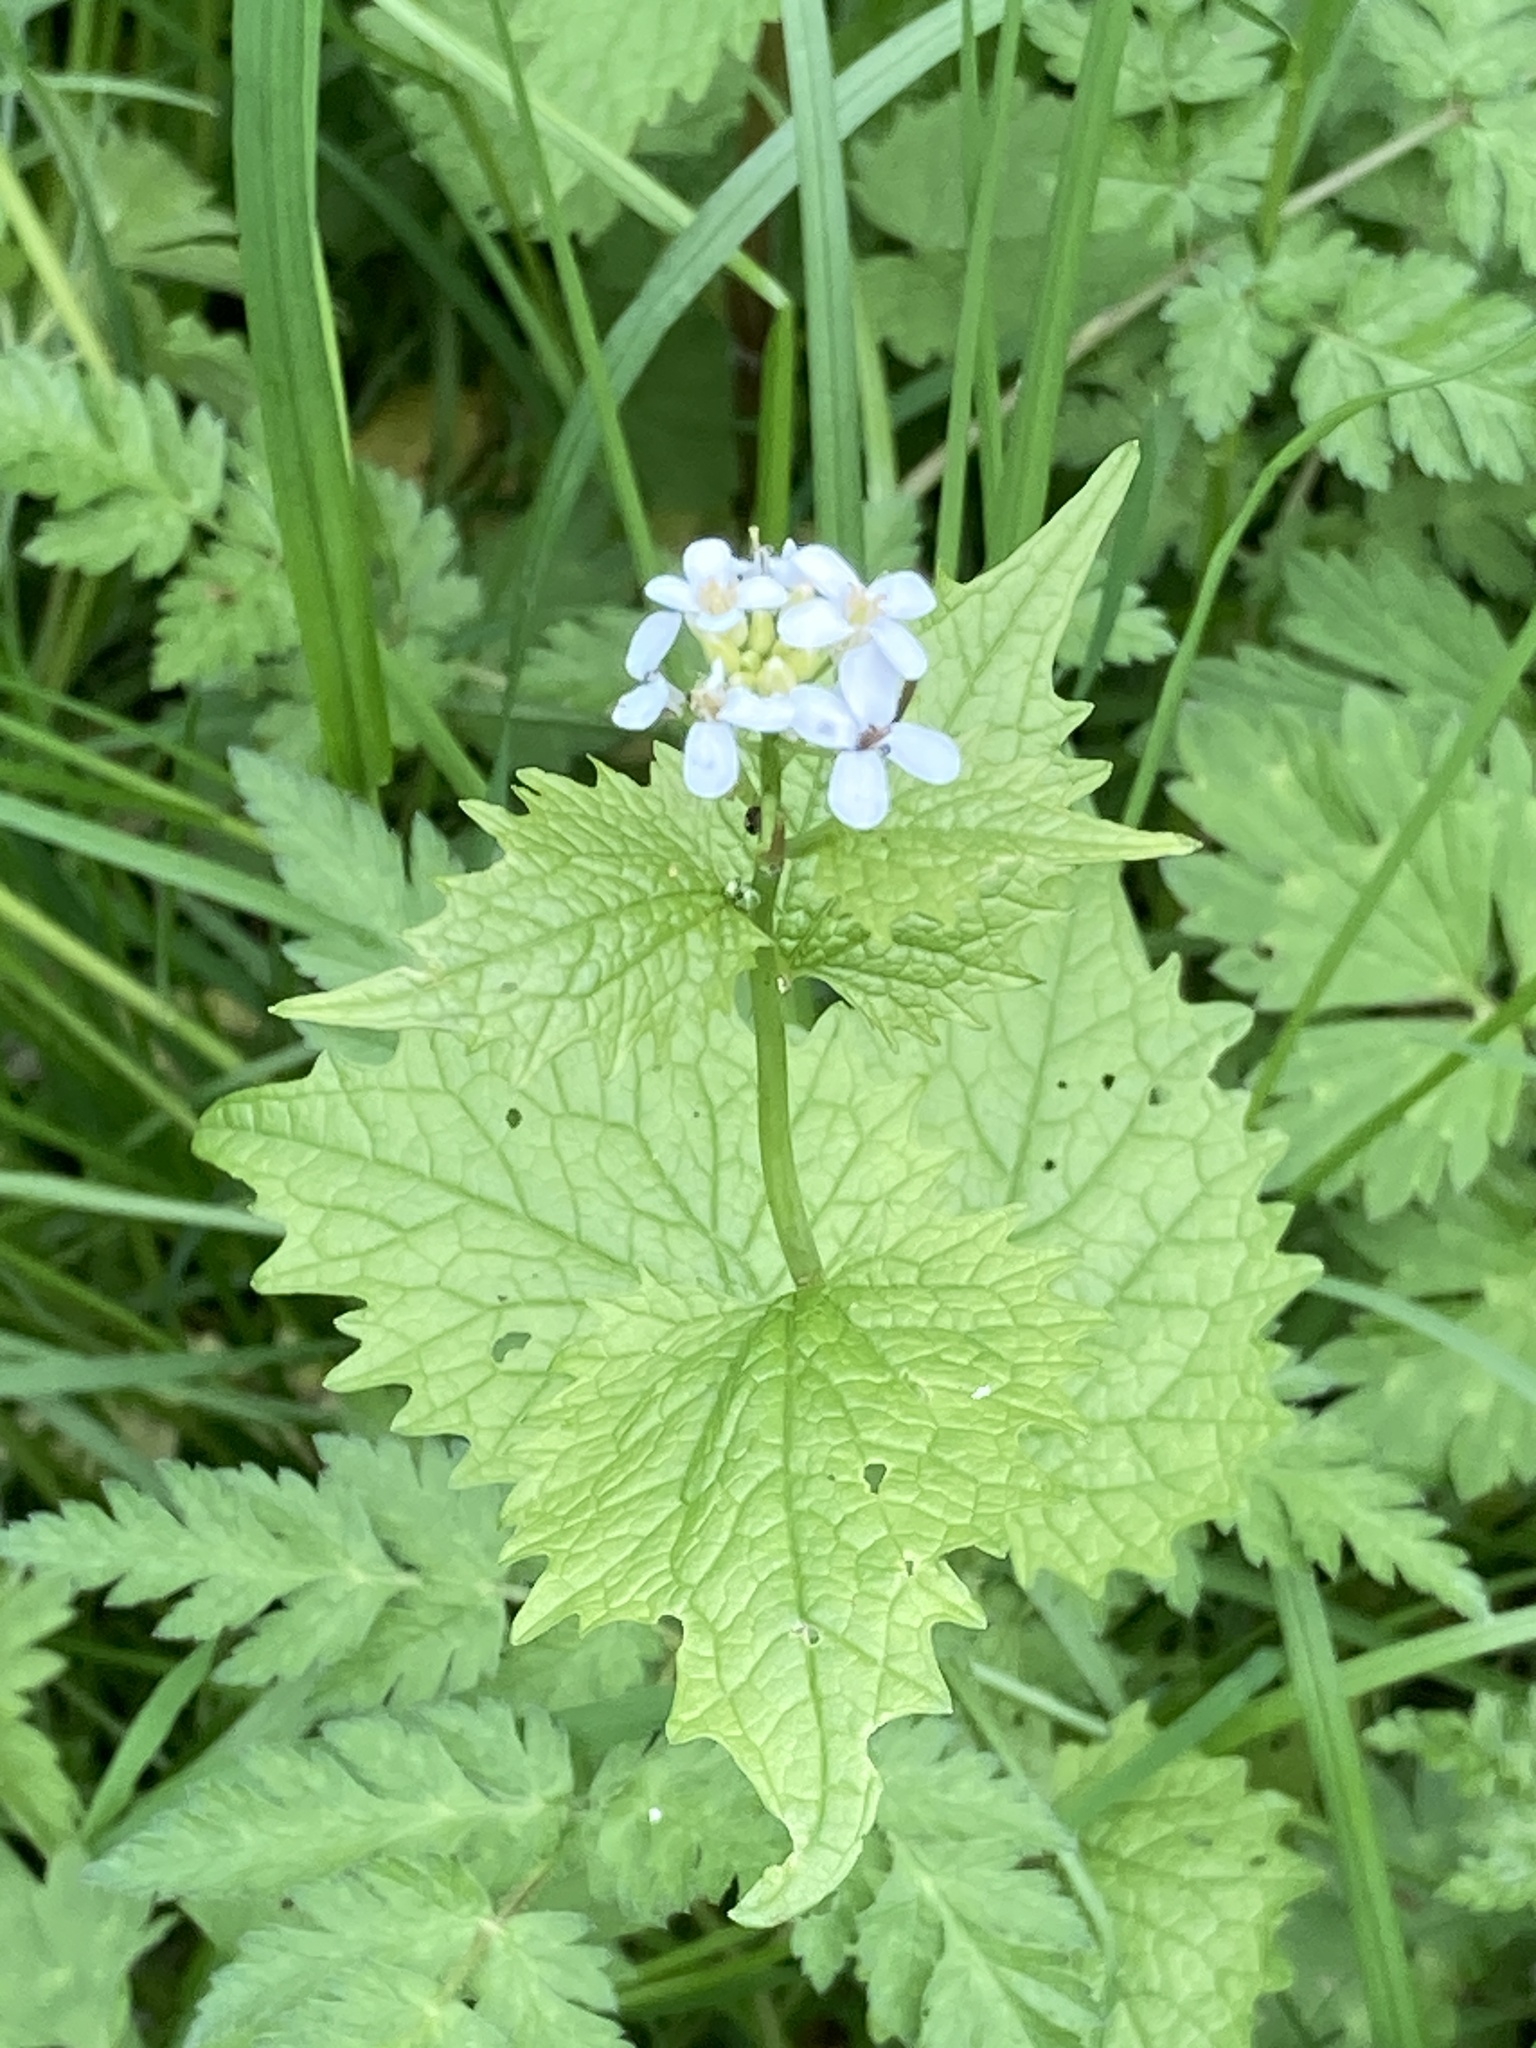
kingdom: Plantae
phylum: Tracheophyta
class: Magnoliopsida
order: Brassicales
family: Brassicaceae
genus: Alliaria
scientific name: Alliaria petiolata
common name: Garlic mustard
